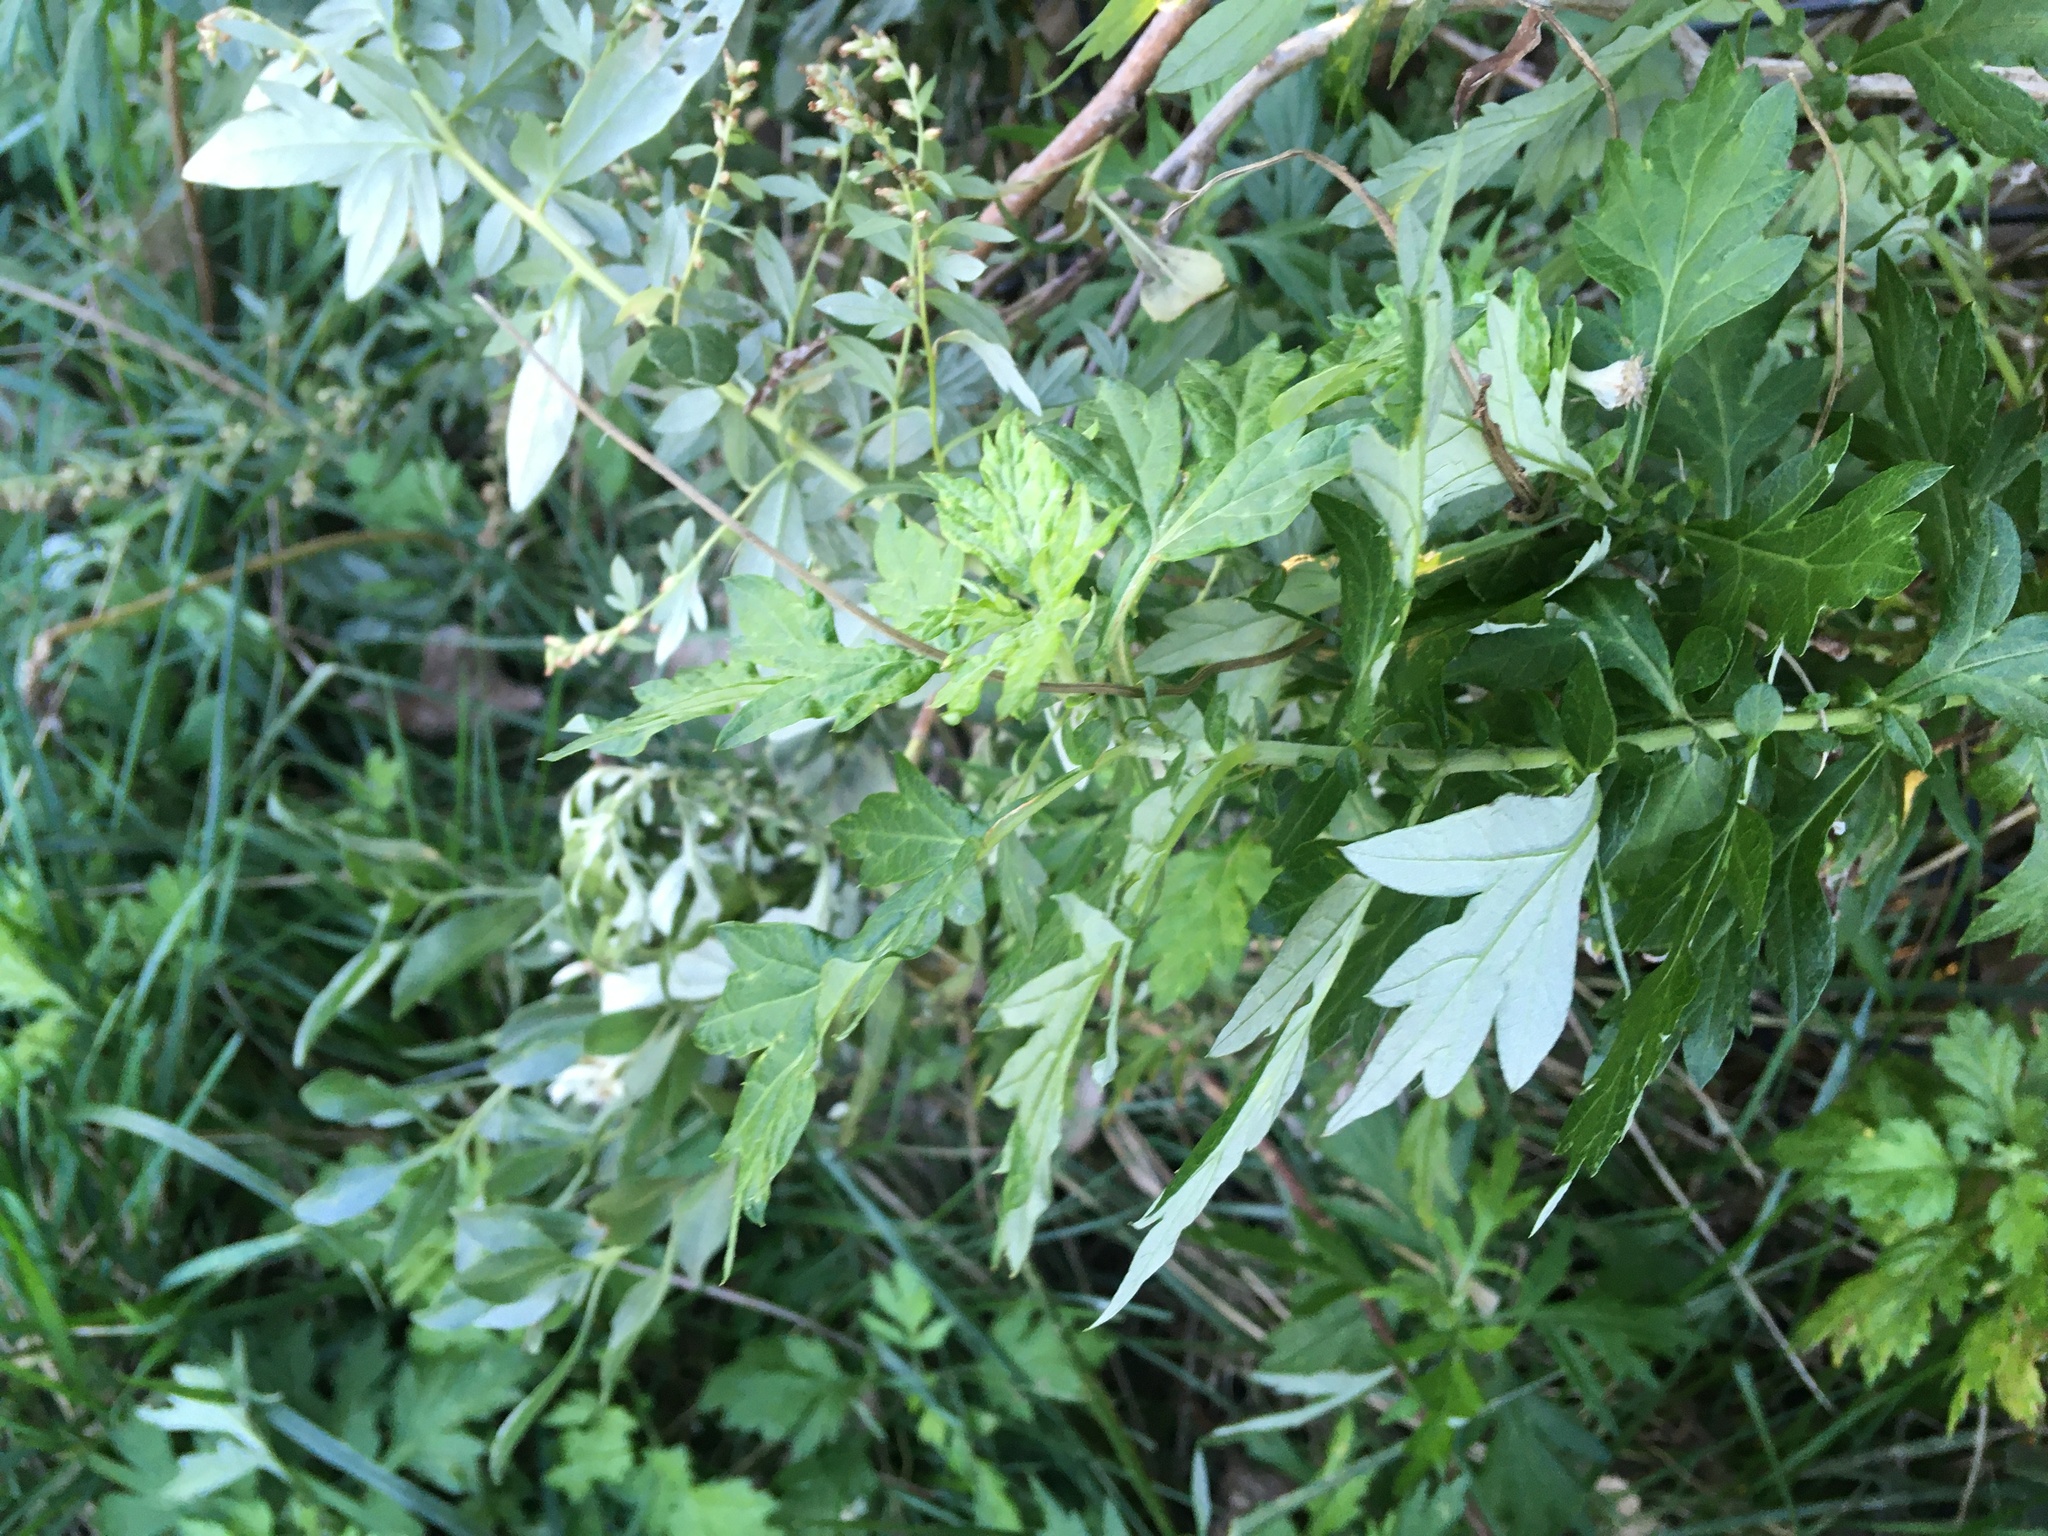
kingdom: Plantae
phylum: Tracheophyta
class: Magnoliopsida
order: Asterales
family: Asteraceae
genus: Artemisia
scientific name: Artemisia vulgaris
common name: Mugwort
